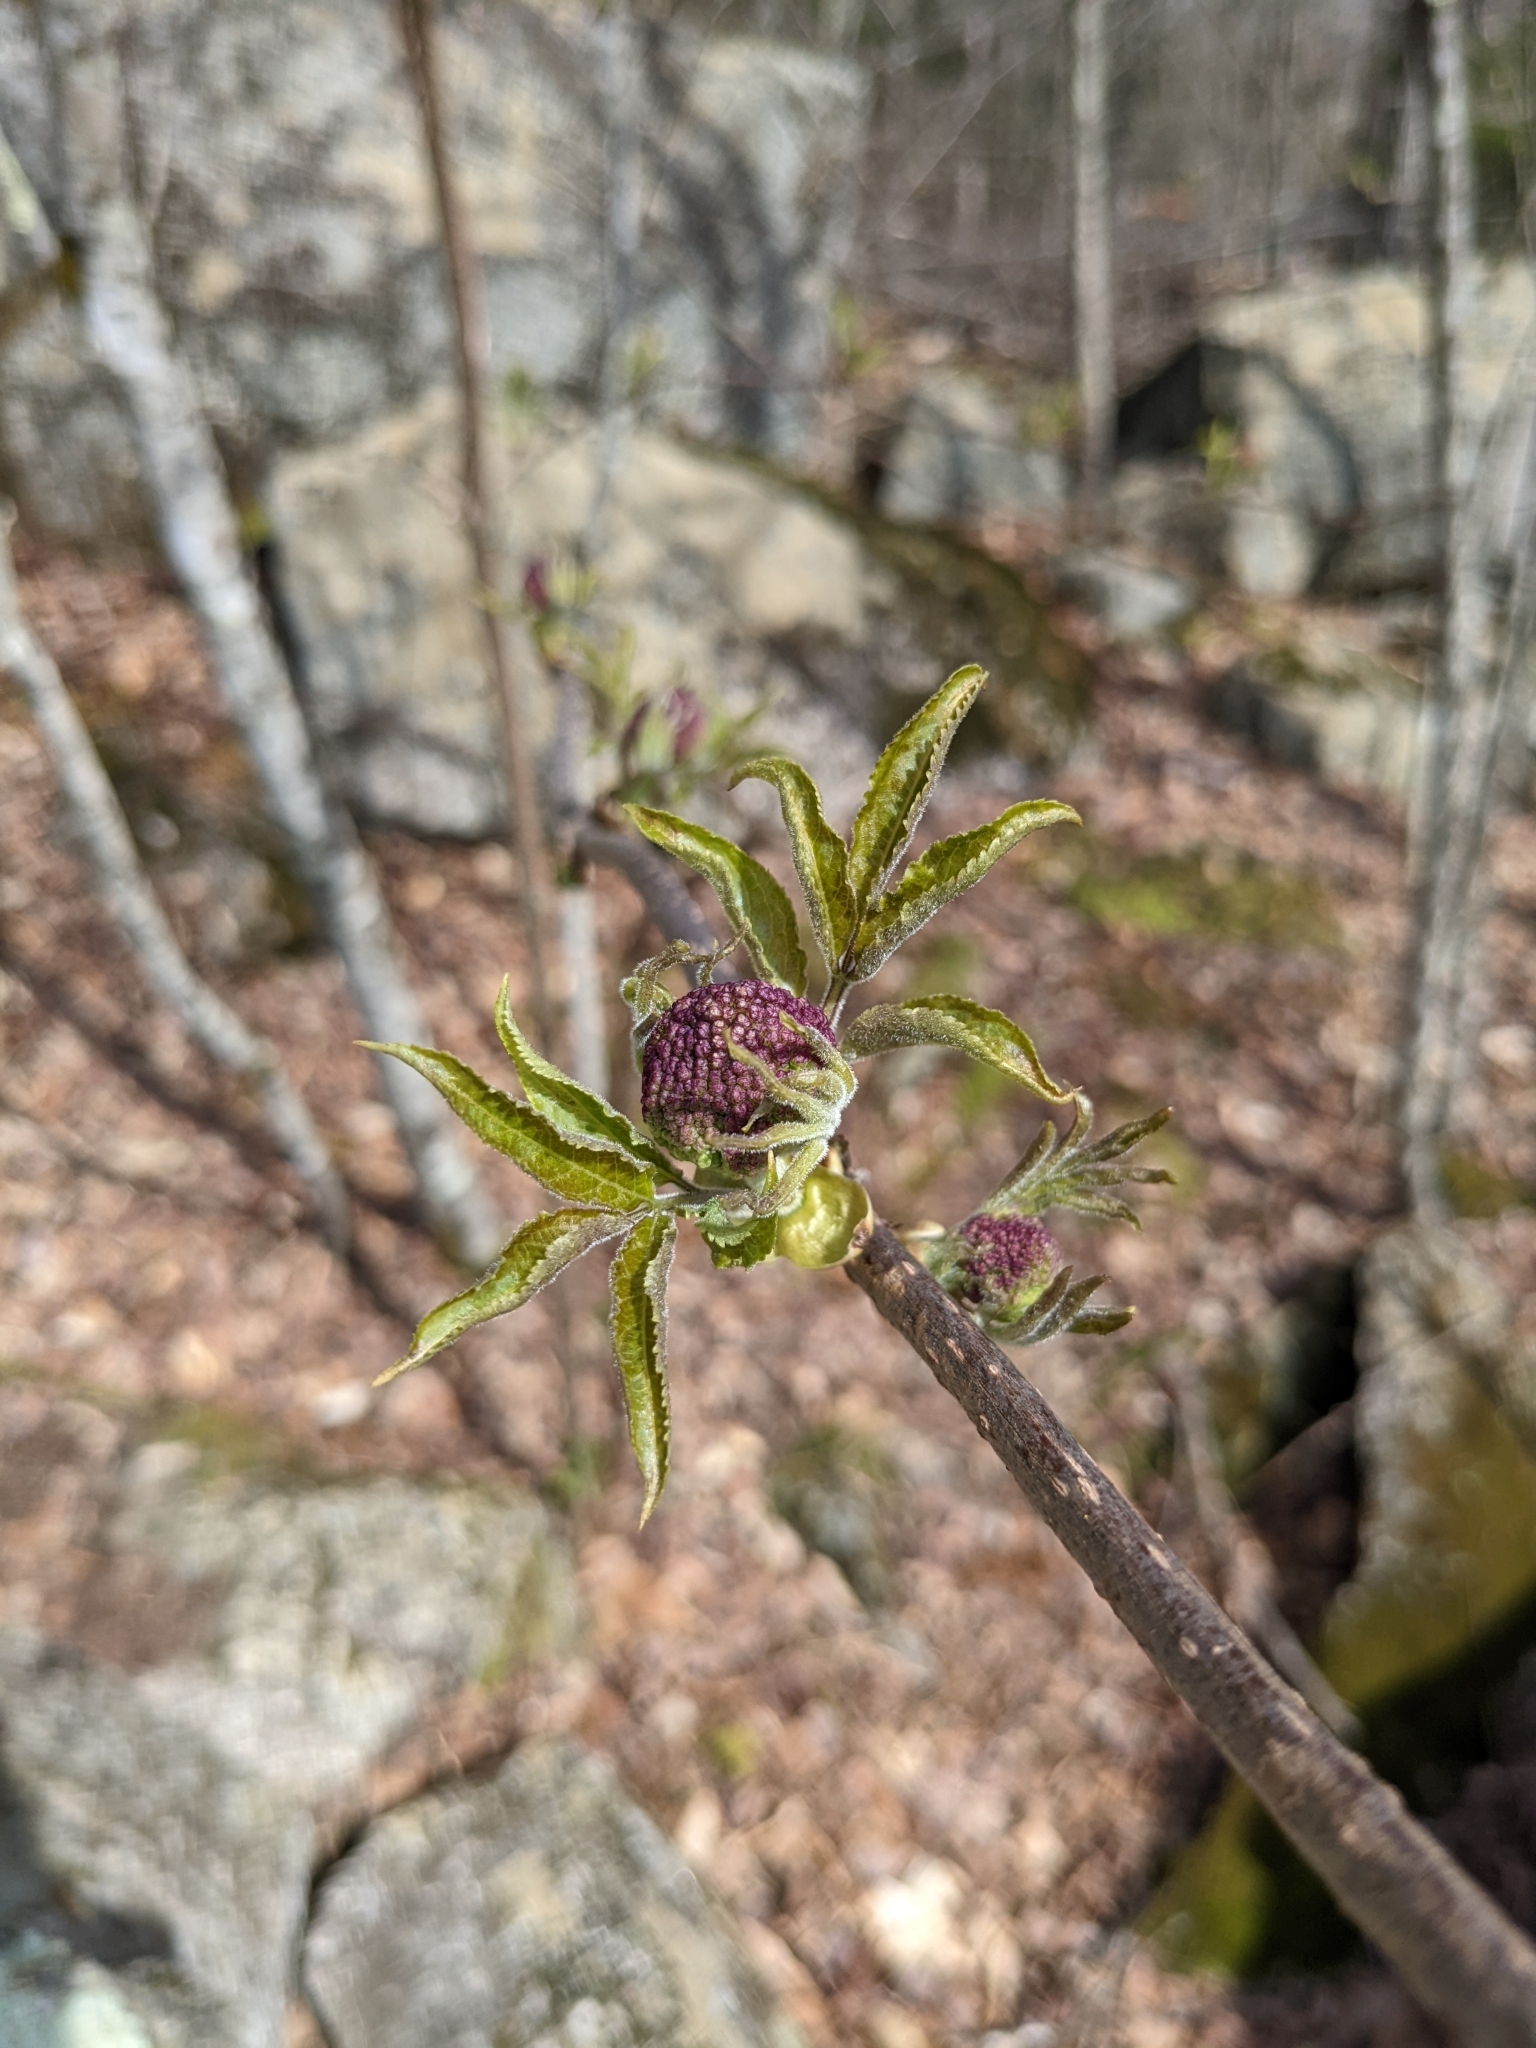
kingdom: Plantae
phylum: Tracheophyta
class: Magnoliopsida
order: Dipsacales
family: Viburnaceae
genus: Sambucus
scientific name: Sambucus racemosa
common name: Red-berried elder
